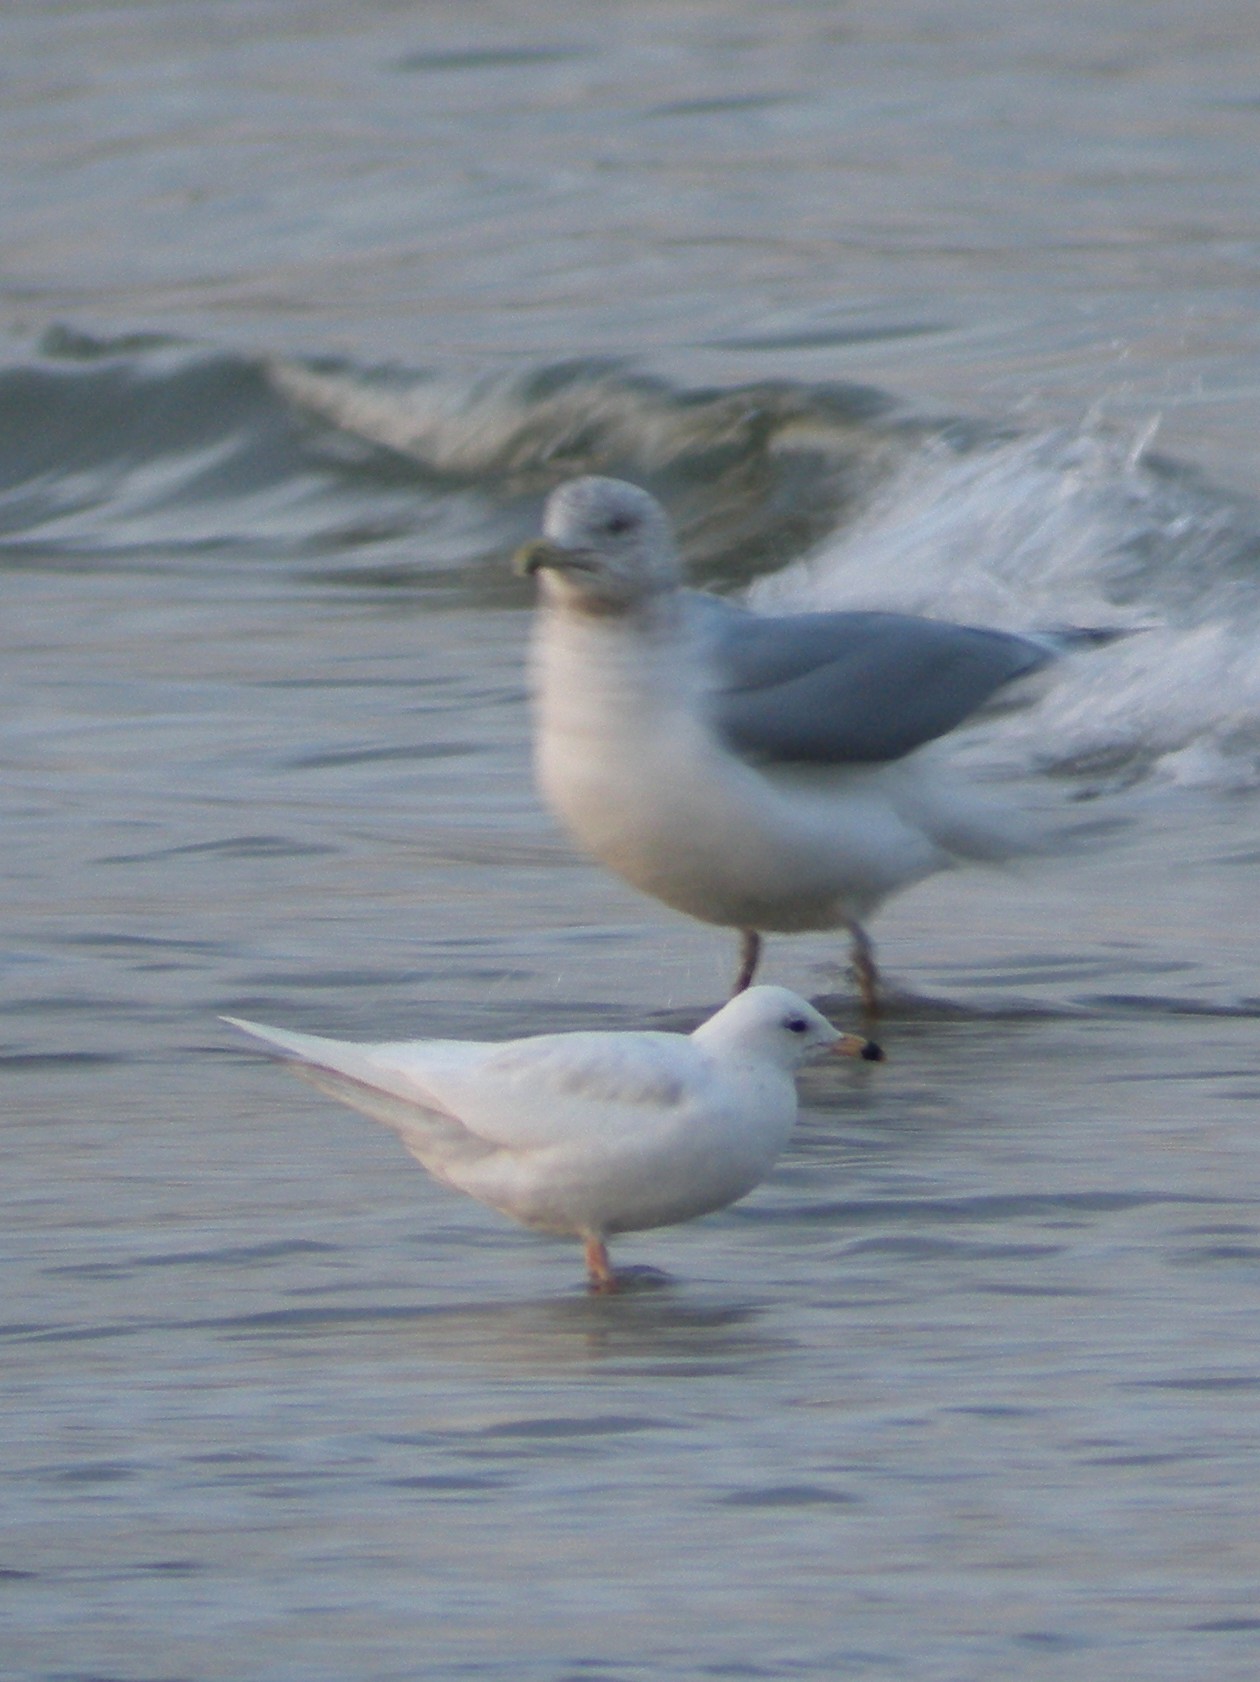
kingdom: Animalia
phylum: Chordata
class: Aves
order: Charadriiformes
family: Laridae
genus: Larus
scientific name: Larus delawarensis
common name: Ring-billed gull
